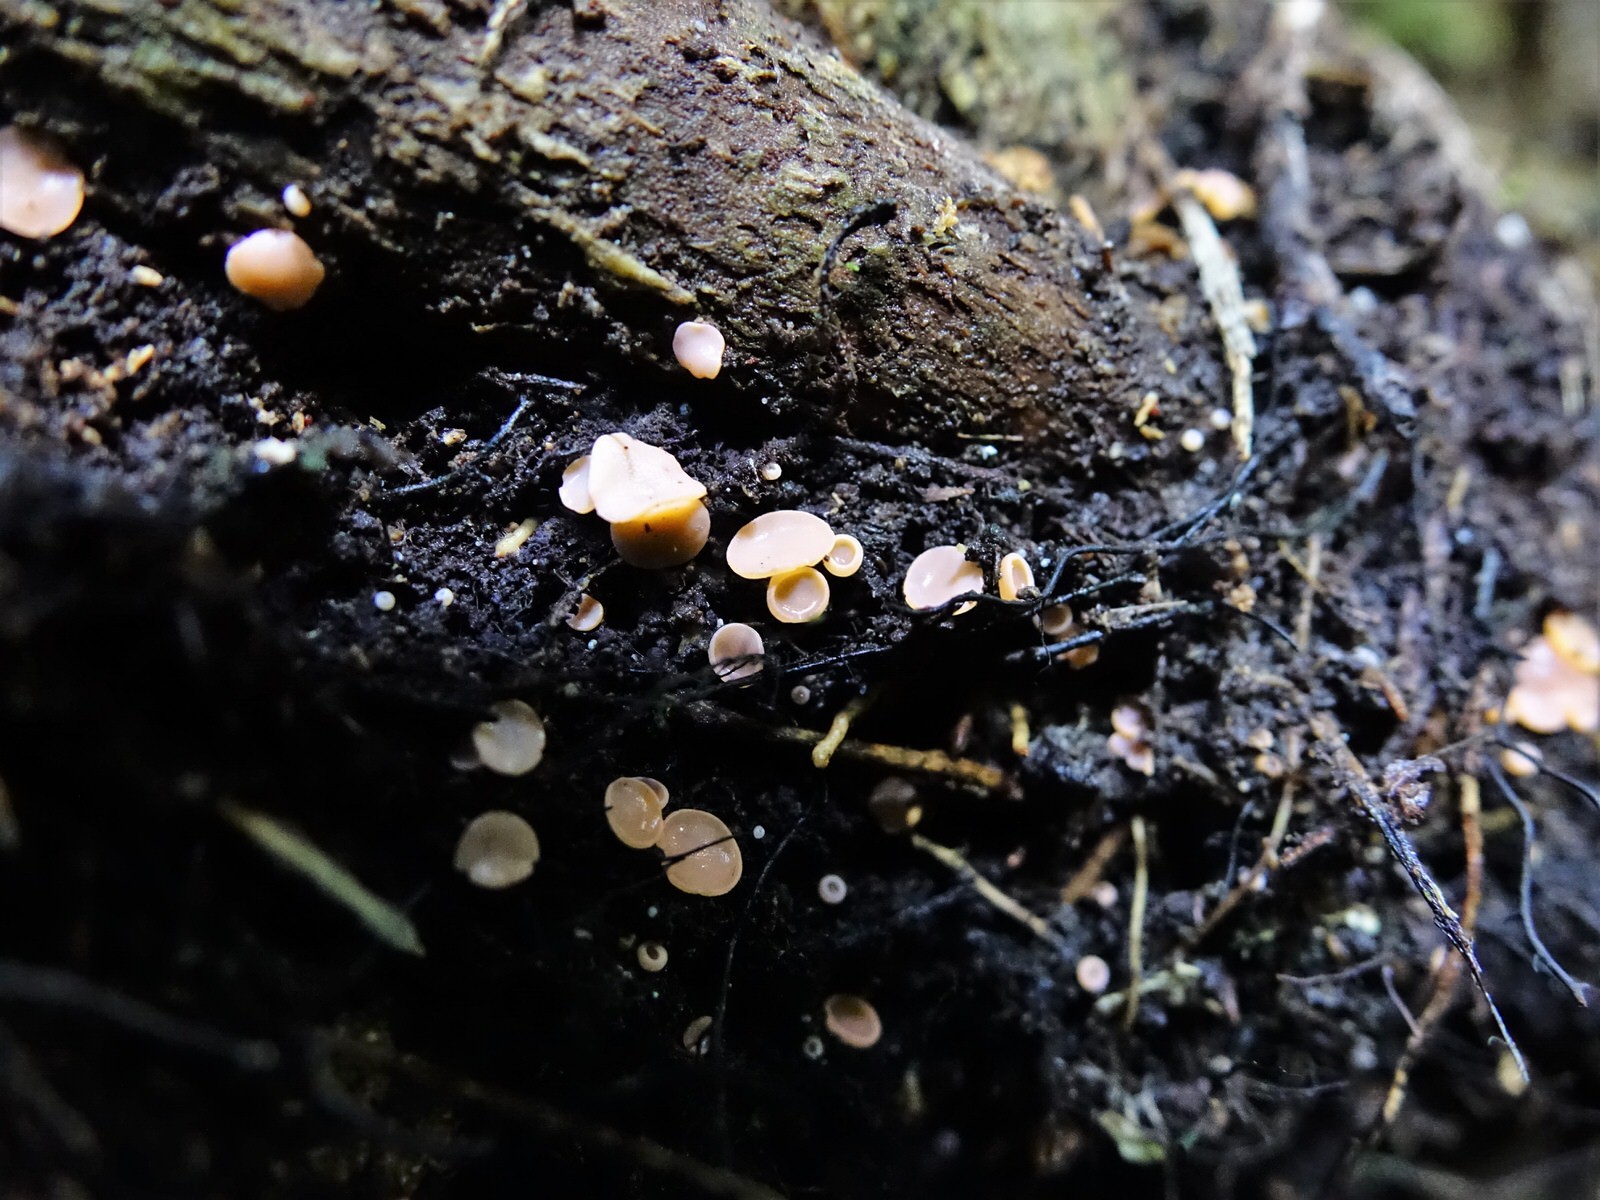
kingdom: Fungi
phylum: Ascomycota
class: Pezizomycetes
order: Pezizales
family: Sarcoscyphaceae
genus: Cookeina
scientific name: Cookeina colensoi
